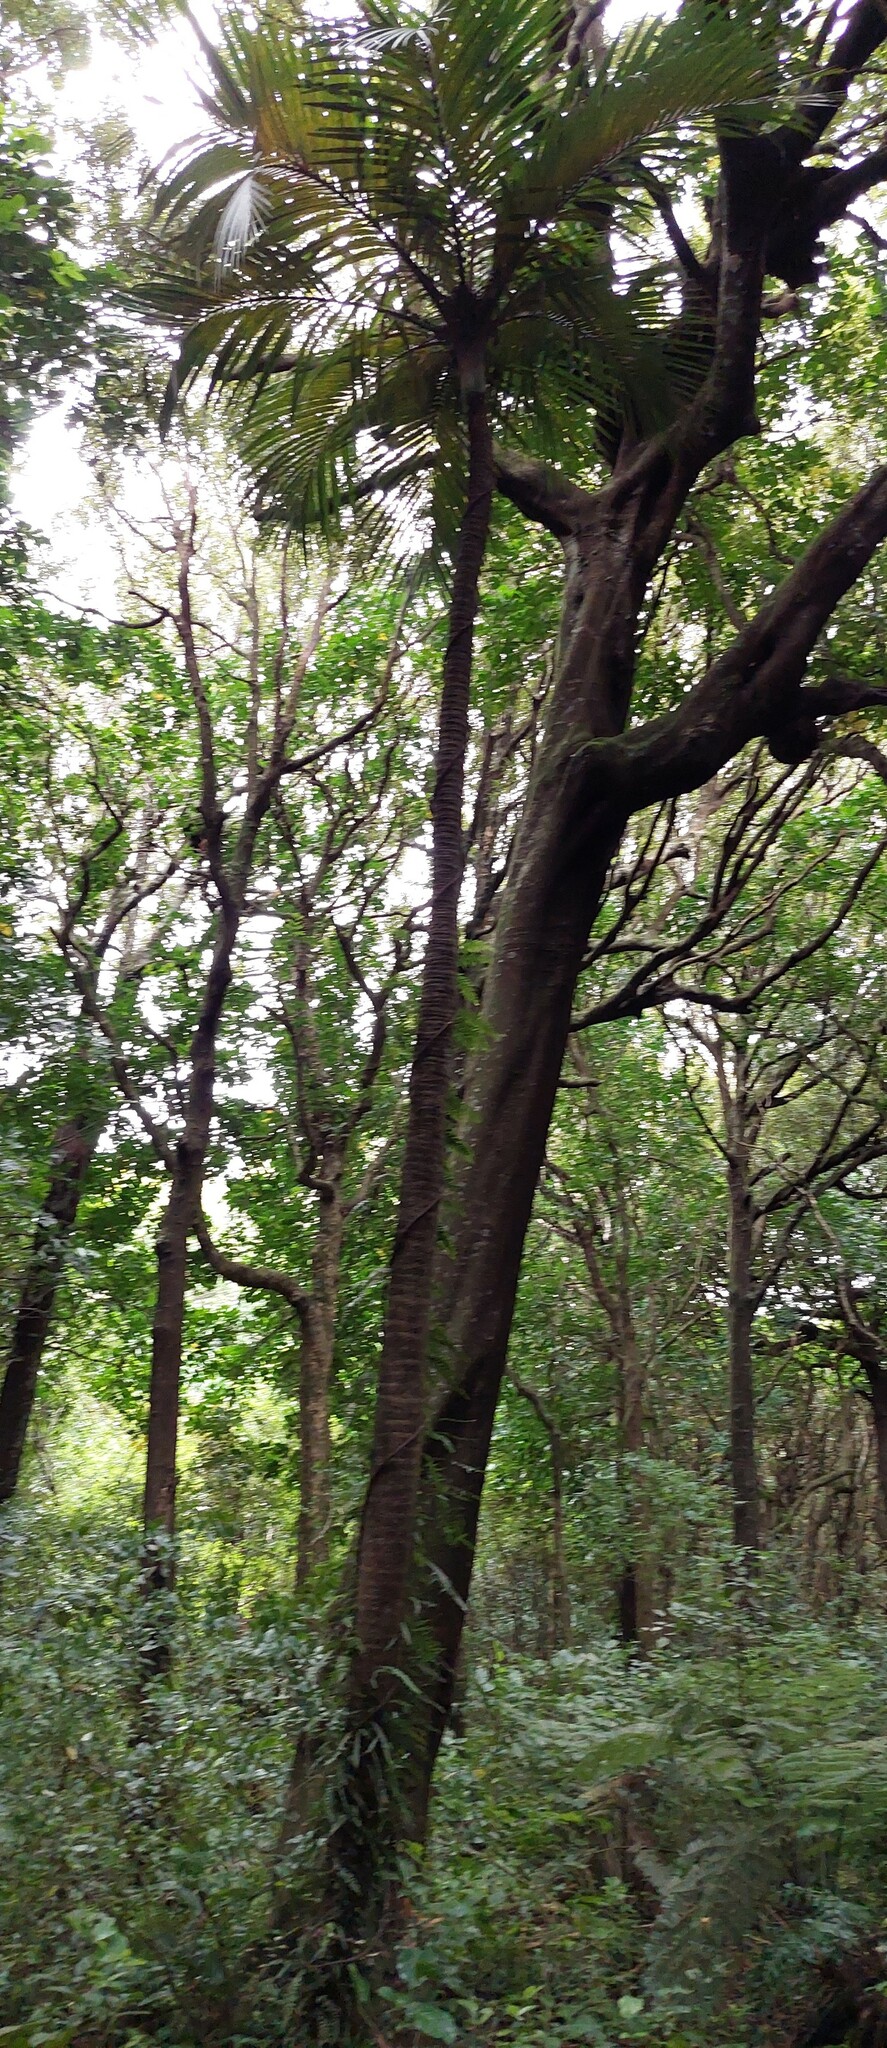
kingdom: Plantae
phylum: Tracheophyta
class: Liliopsida
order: Arecales
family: Arecaceae
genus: Rhopalostylis
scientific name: Rhopalostylis sapida
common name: Feather-duster palm
